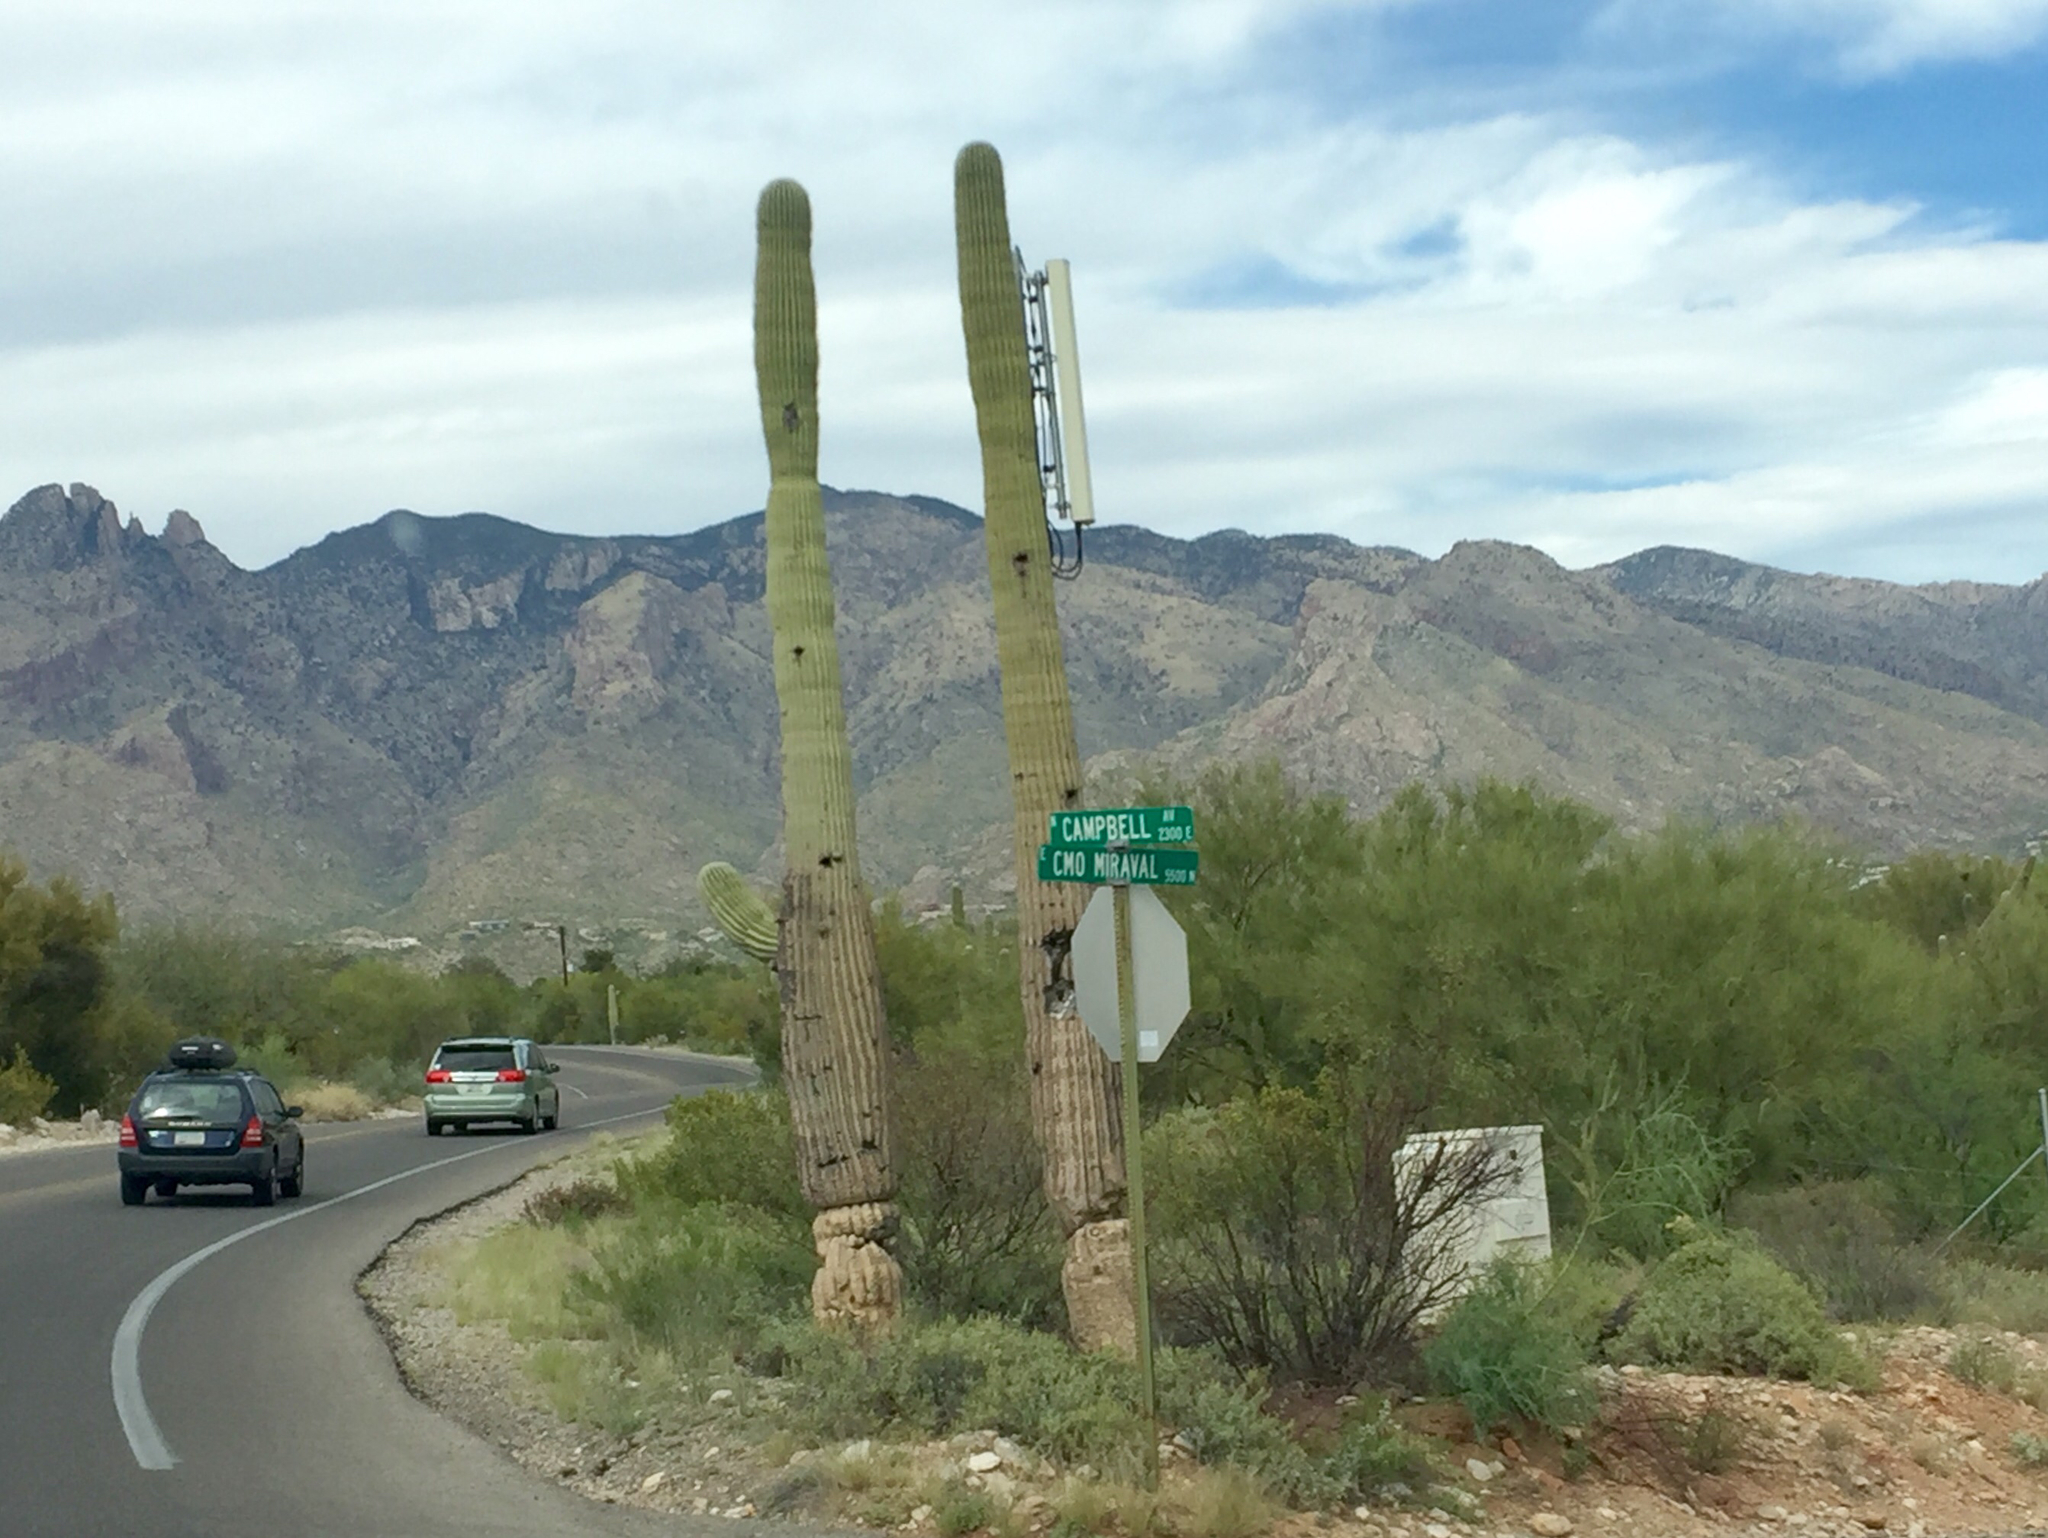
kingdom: Plantae
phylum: Tracheophyta
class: Magnoliopsida
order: Caryophyllales
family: Cactaceae
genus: Carnegiea
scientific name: Carnegiea gigantea
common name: Saguaro
